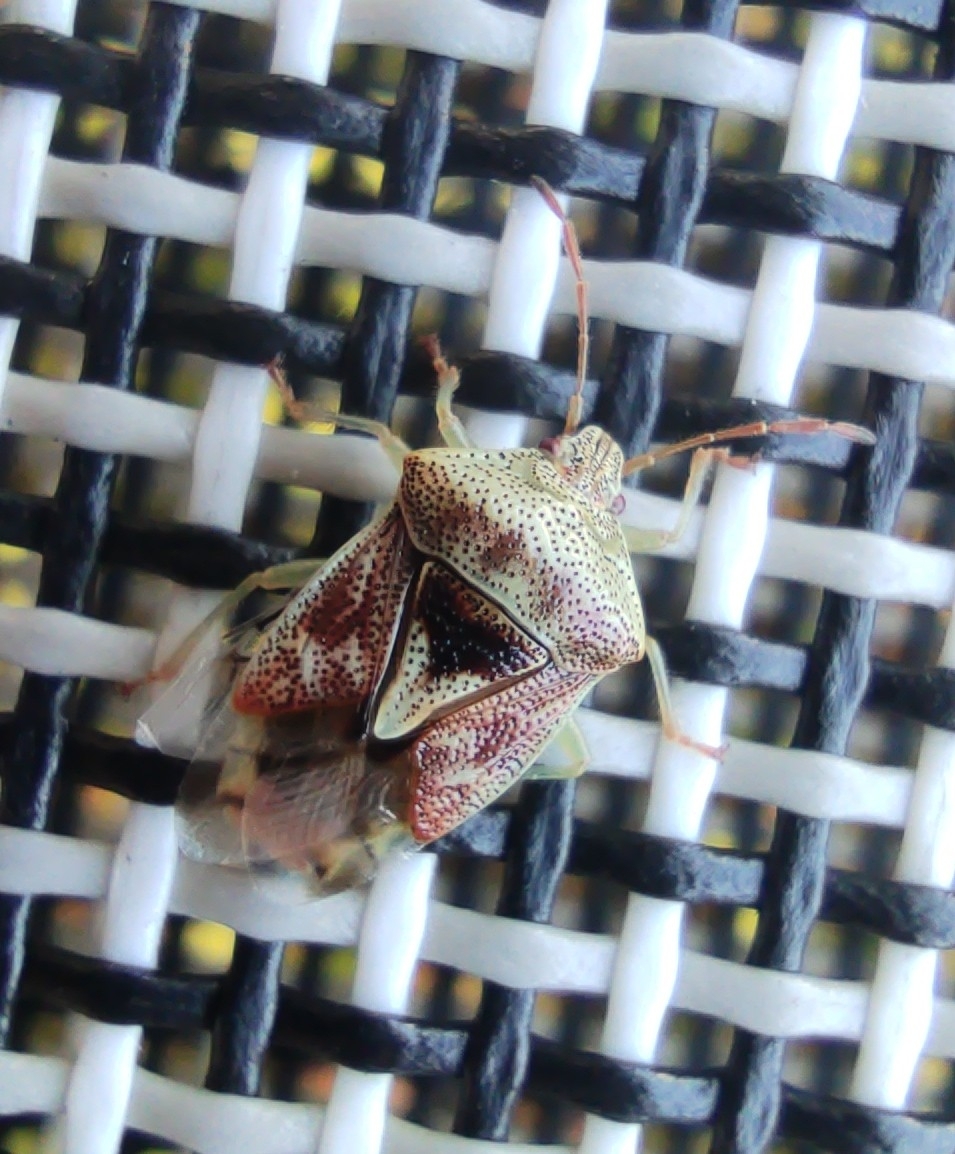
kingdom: Animalia
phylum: Arthropoda
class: Insecta
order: Hemiptera
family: Acanthosomatidae
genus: Elasmucha
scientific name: Elasmucha grisea
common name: Parent bug
